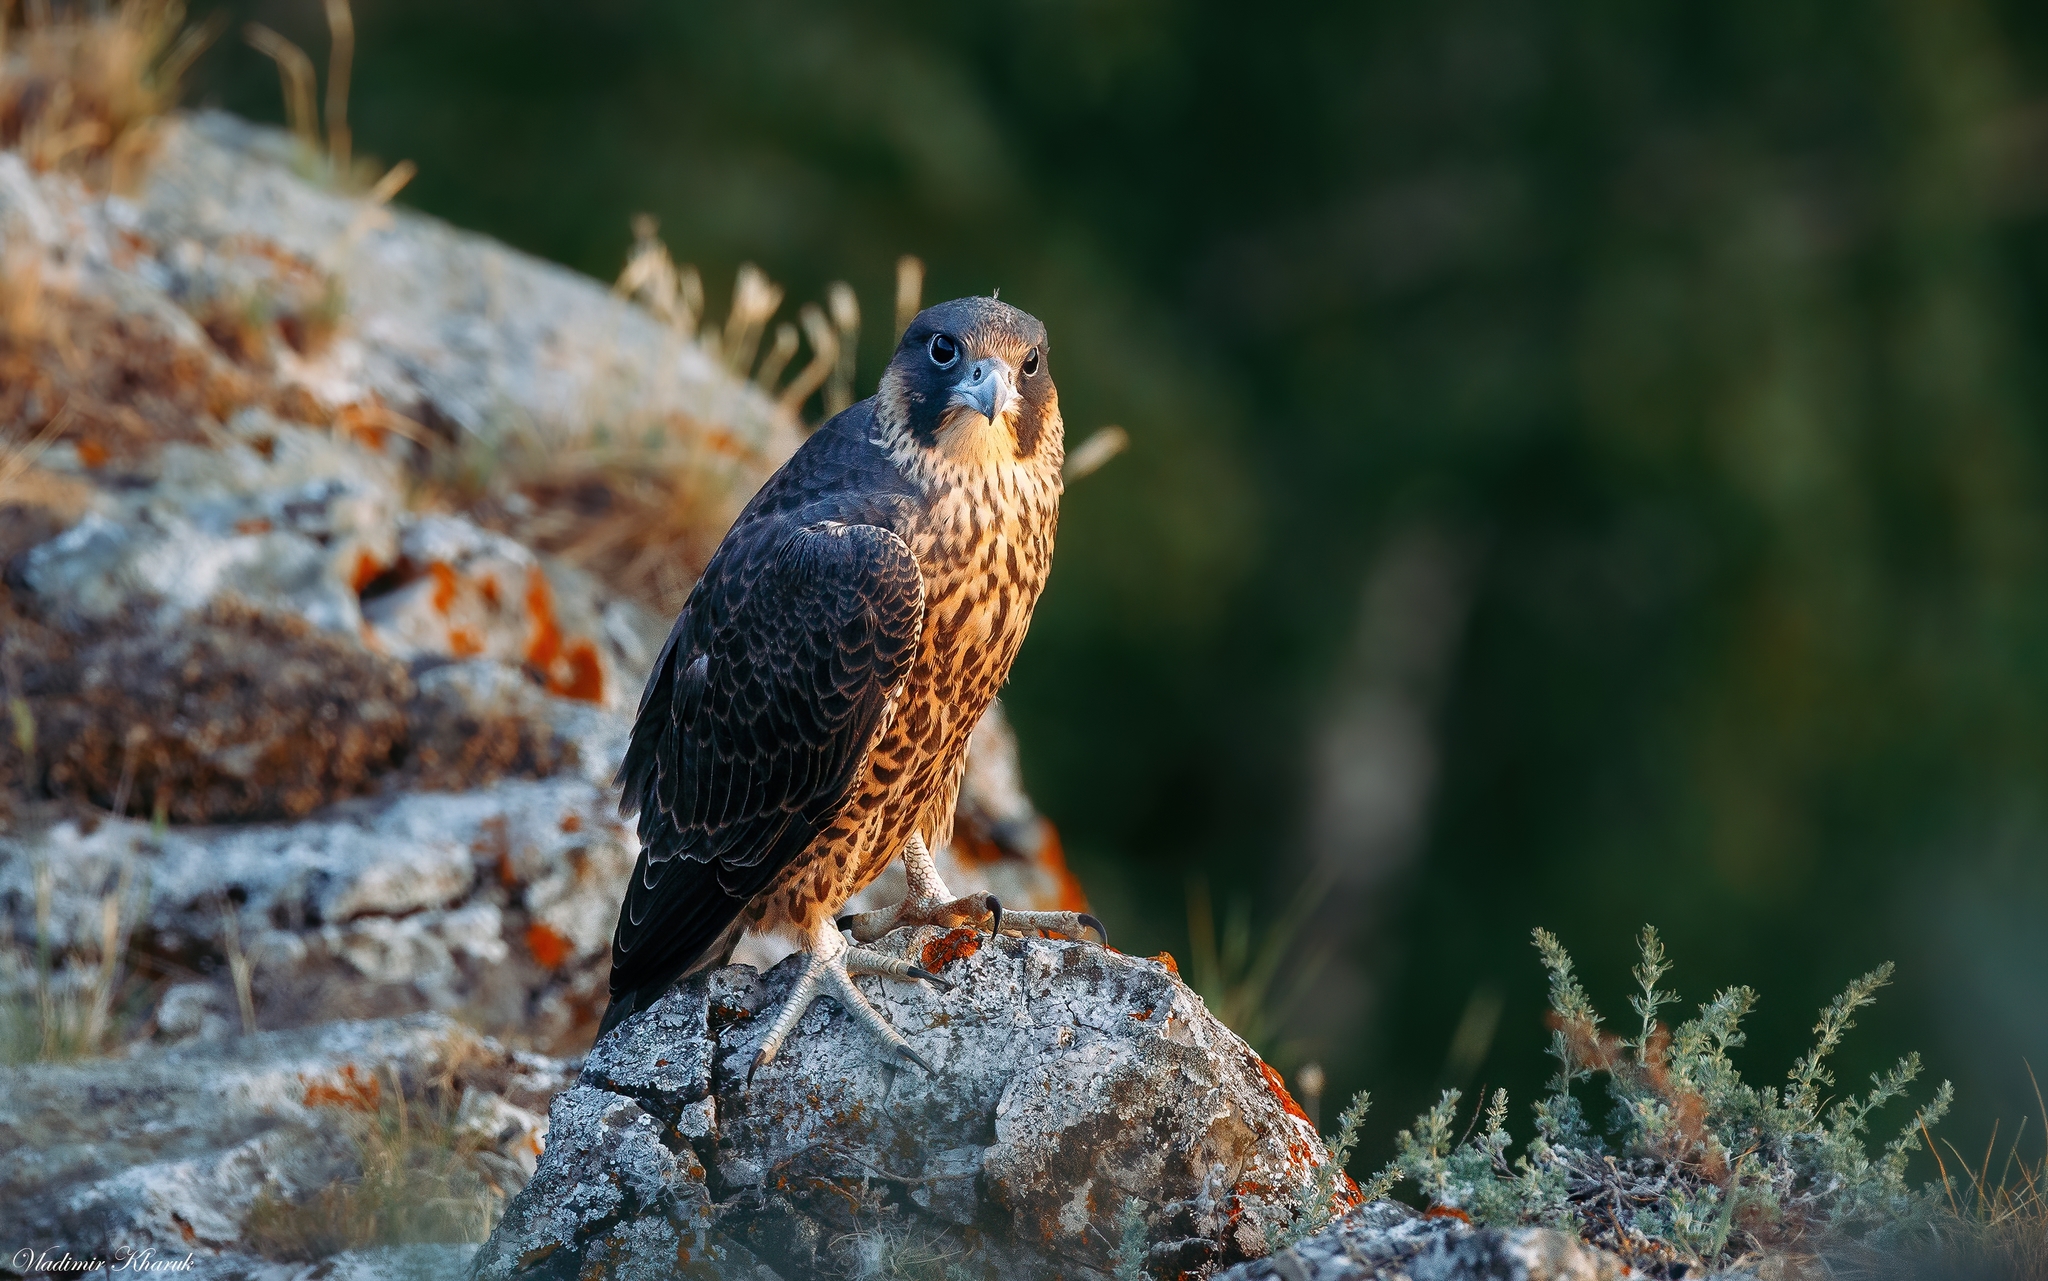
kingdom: Animalia
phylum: Chordata
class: Aves
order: Falconiformes
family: Falconidae
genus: Falco
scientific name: Falco peregrinus
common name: Peregrine falcon
